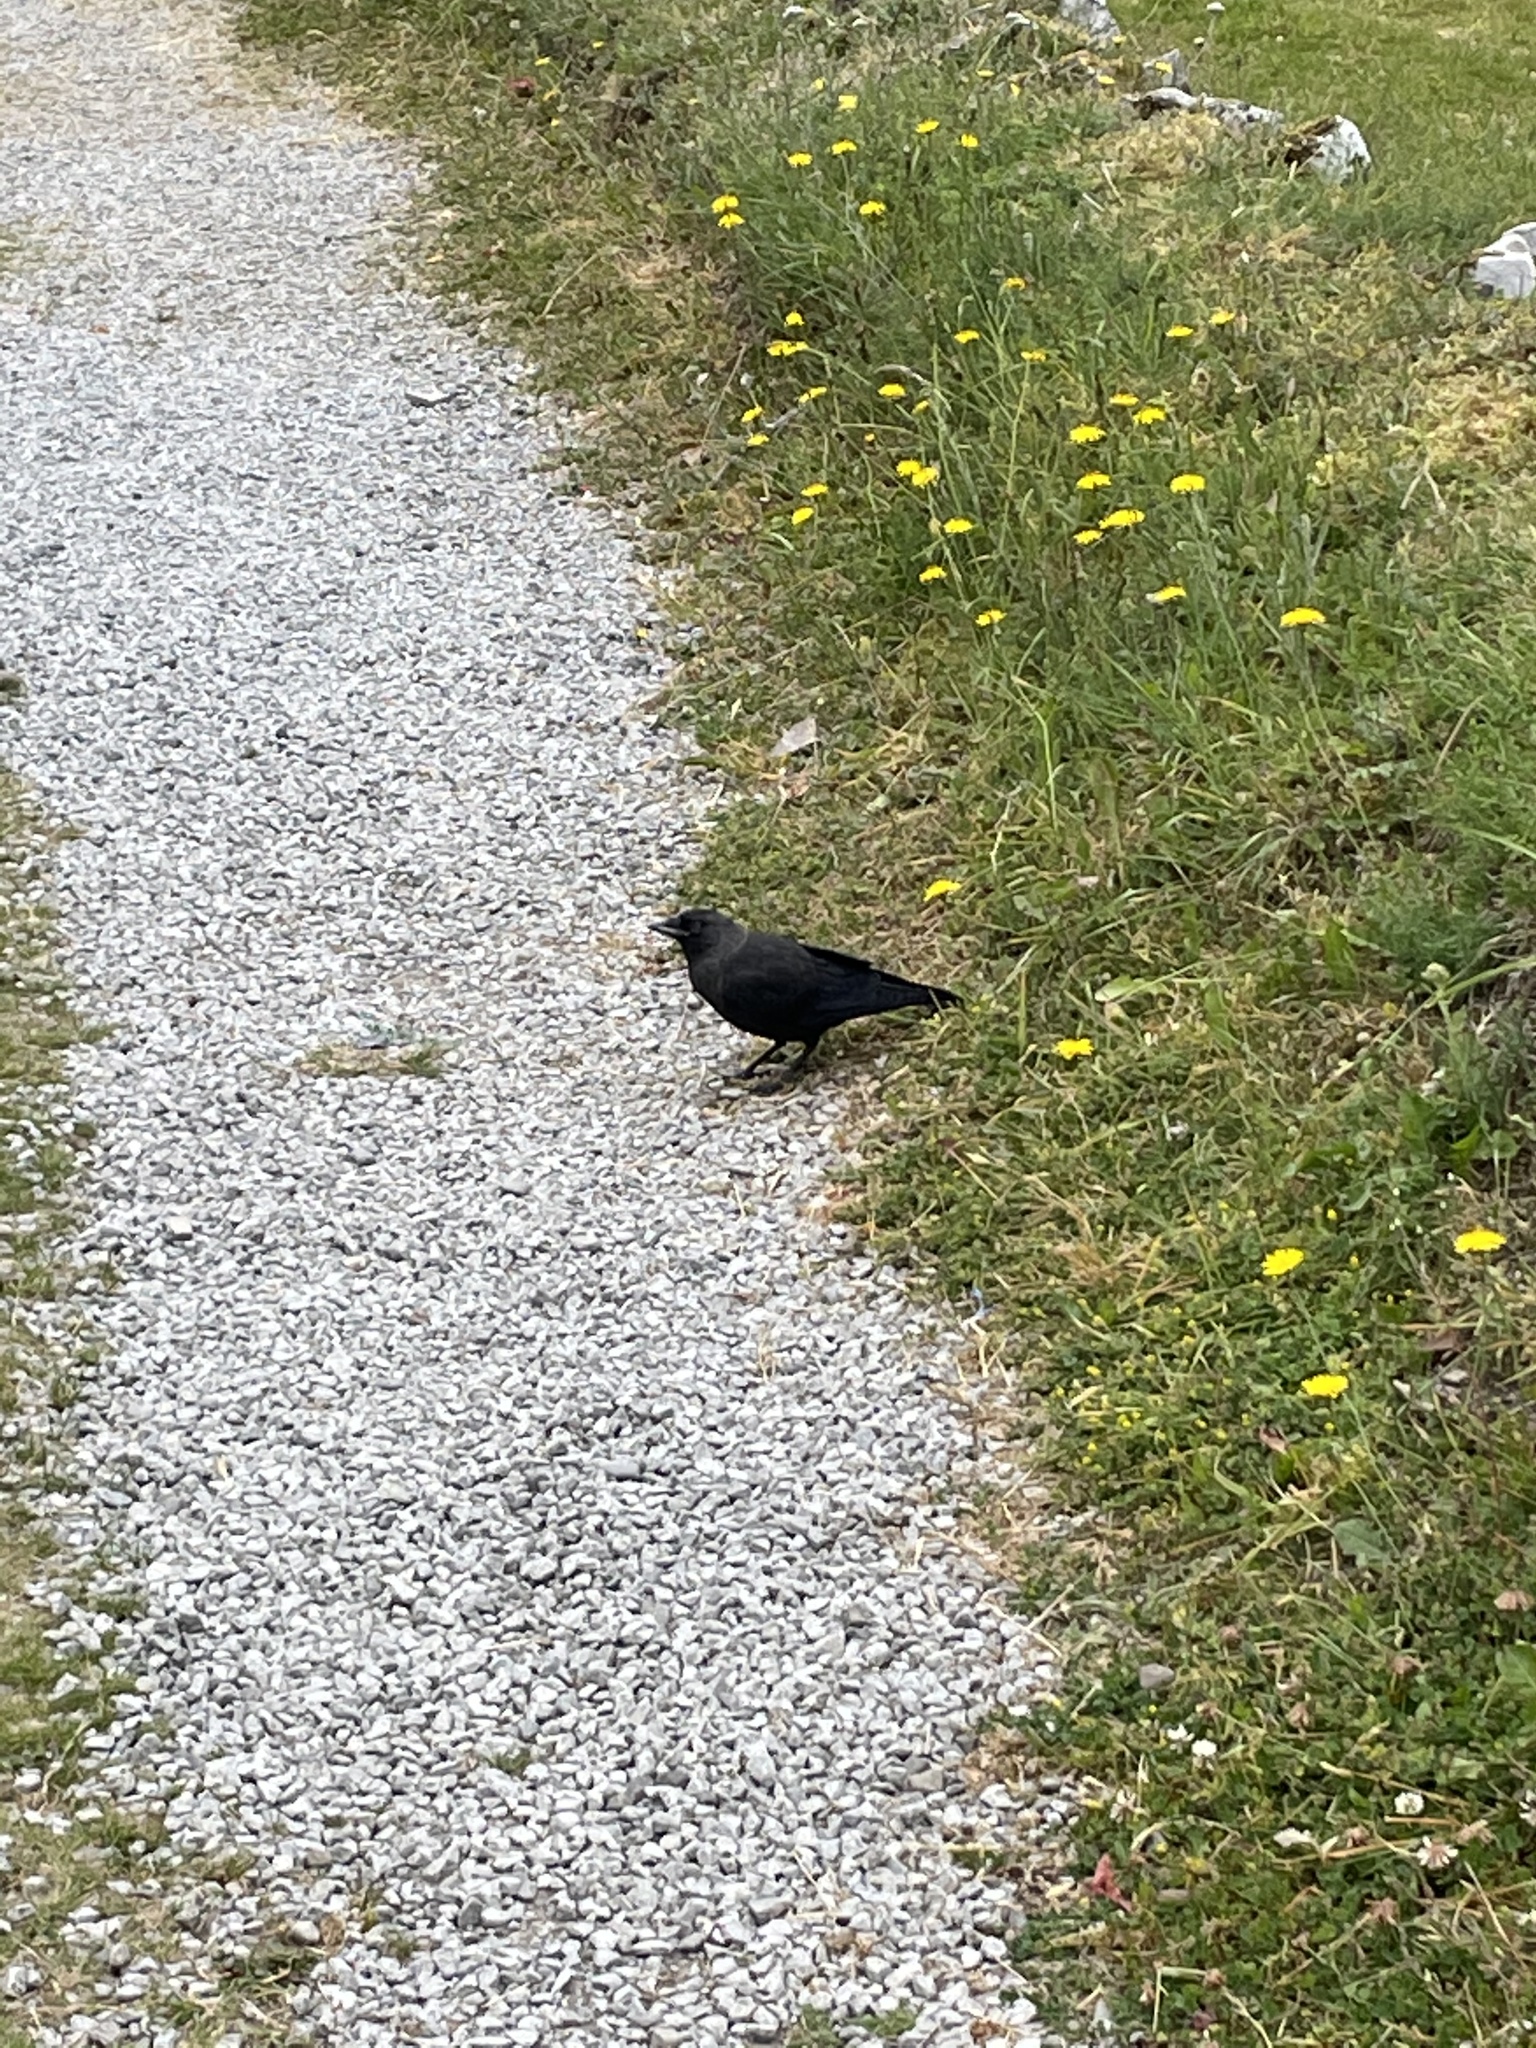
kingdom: Animalia
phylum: Chordata
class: Aves
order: Passeriformes
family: Corvidae
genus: Coloeus
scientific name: Coloeus monedula
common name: Western jackdaw
